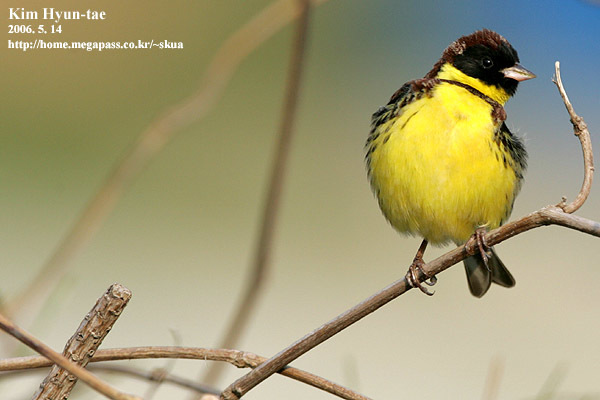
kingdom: Animalia
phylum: Chordata
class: Aves
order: Passeriformes
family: Emberizidae
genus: Emberiza
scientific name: Emberiza aureola
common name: Yellow-breasted bunting
